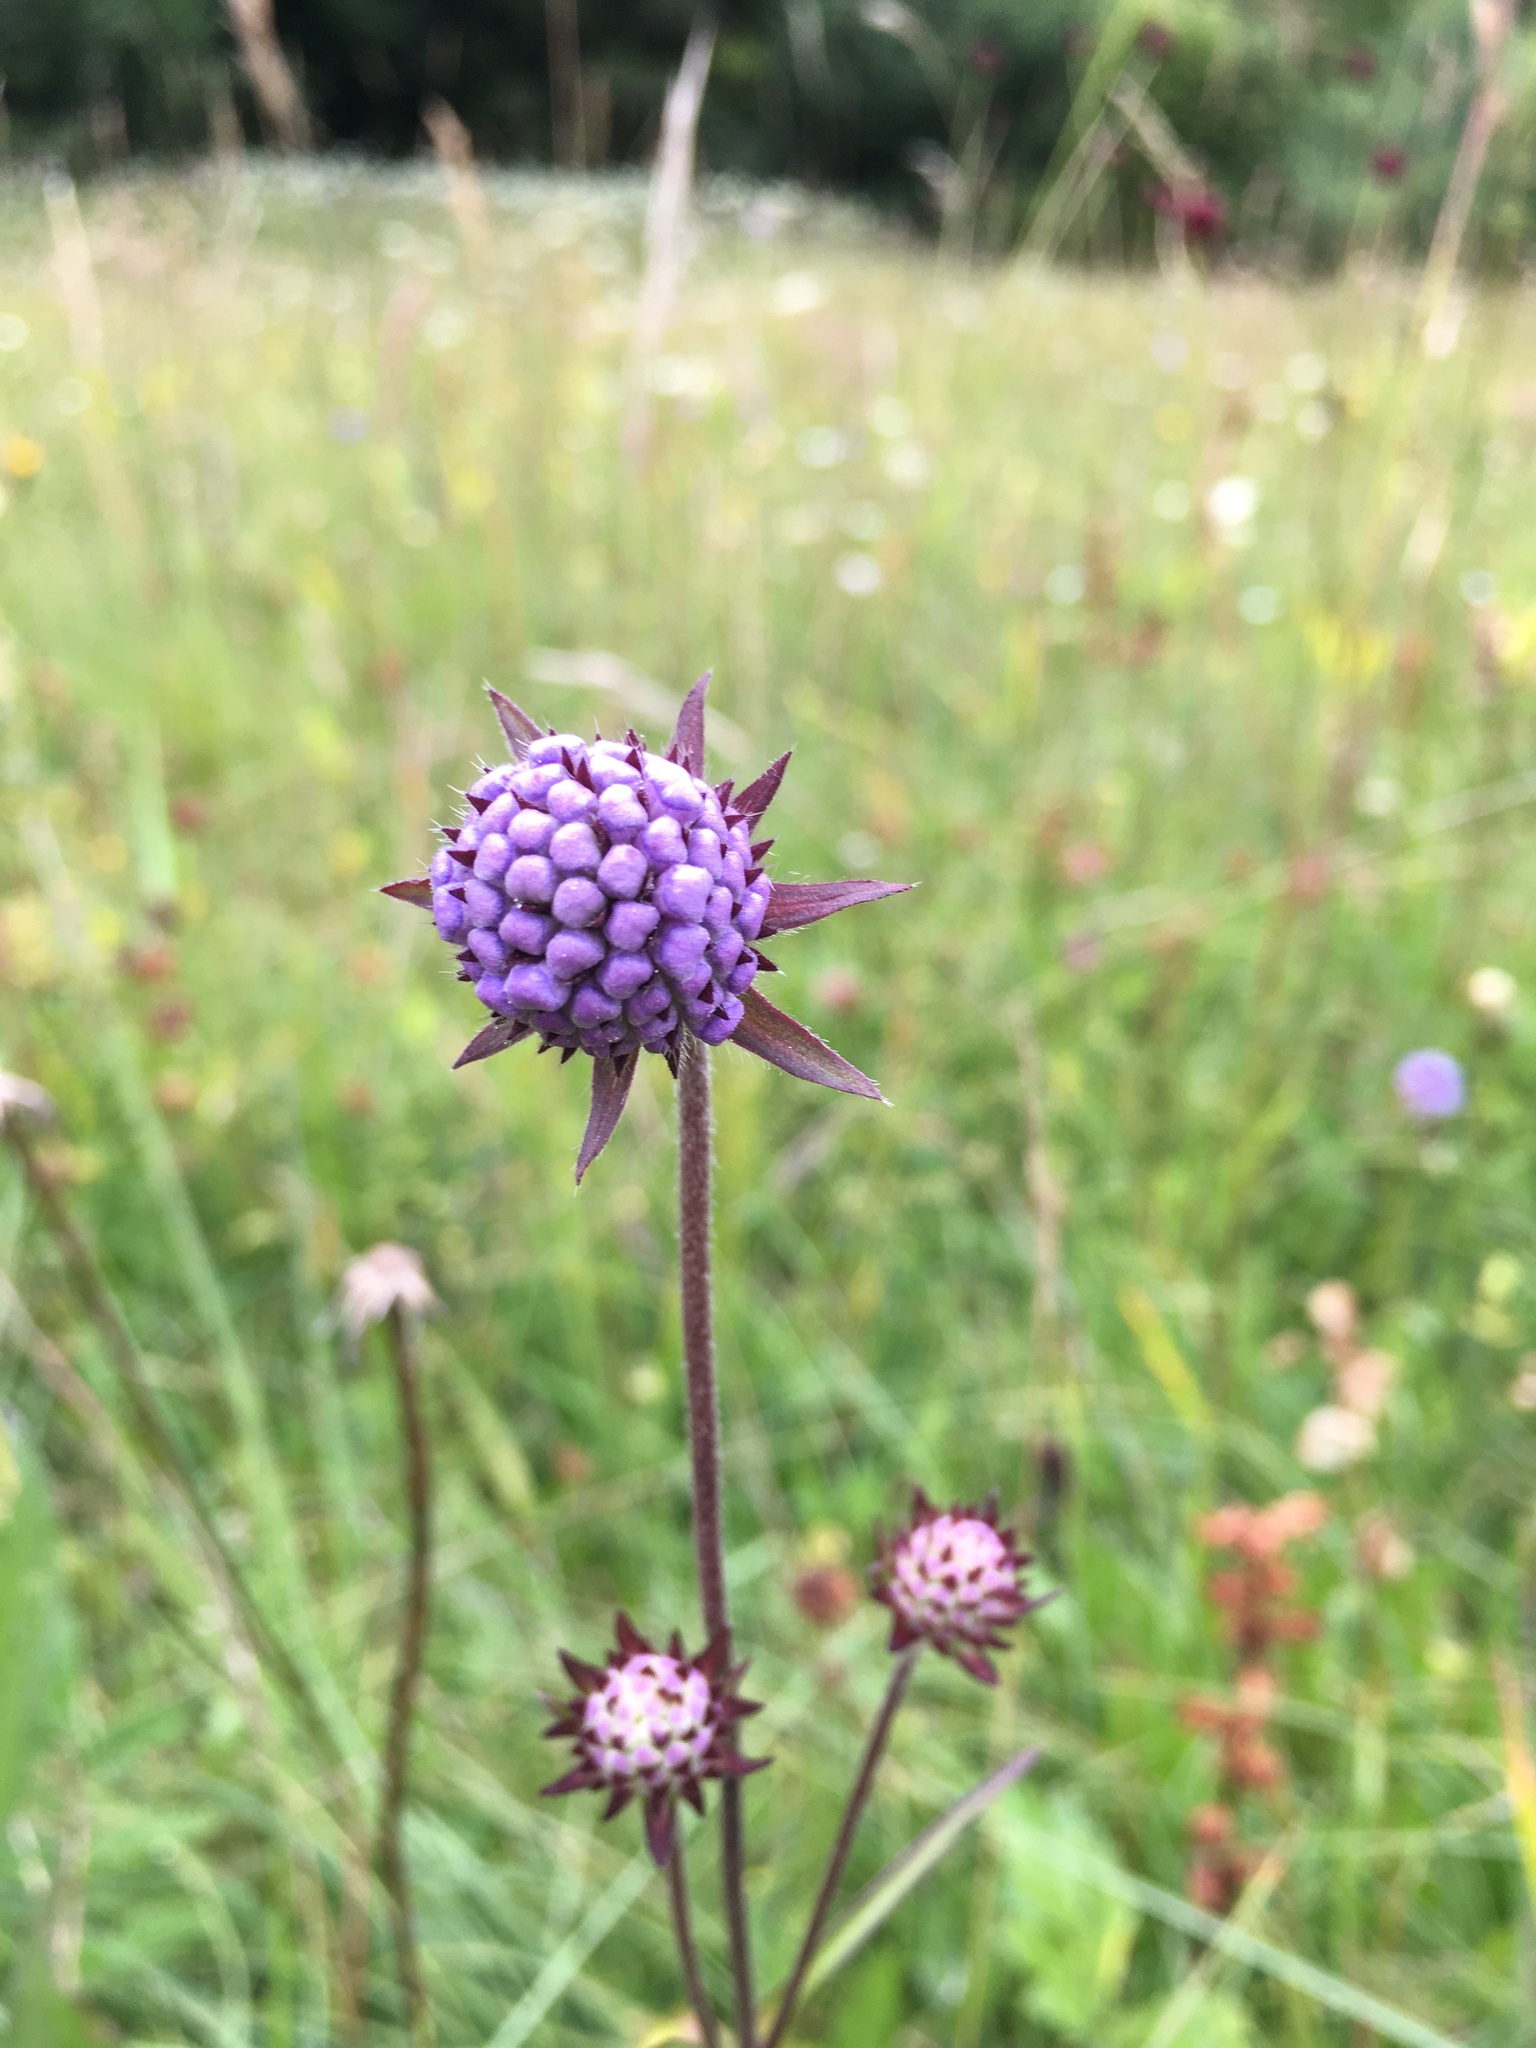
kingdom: Plantae
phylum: Tracheophyta
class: Magnoliopsida
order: Dipsacales
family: Caprifoliaceae
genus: Succisa
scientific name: Succisa pratensis
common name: Devil's-bit
